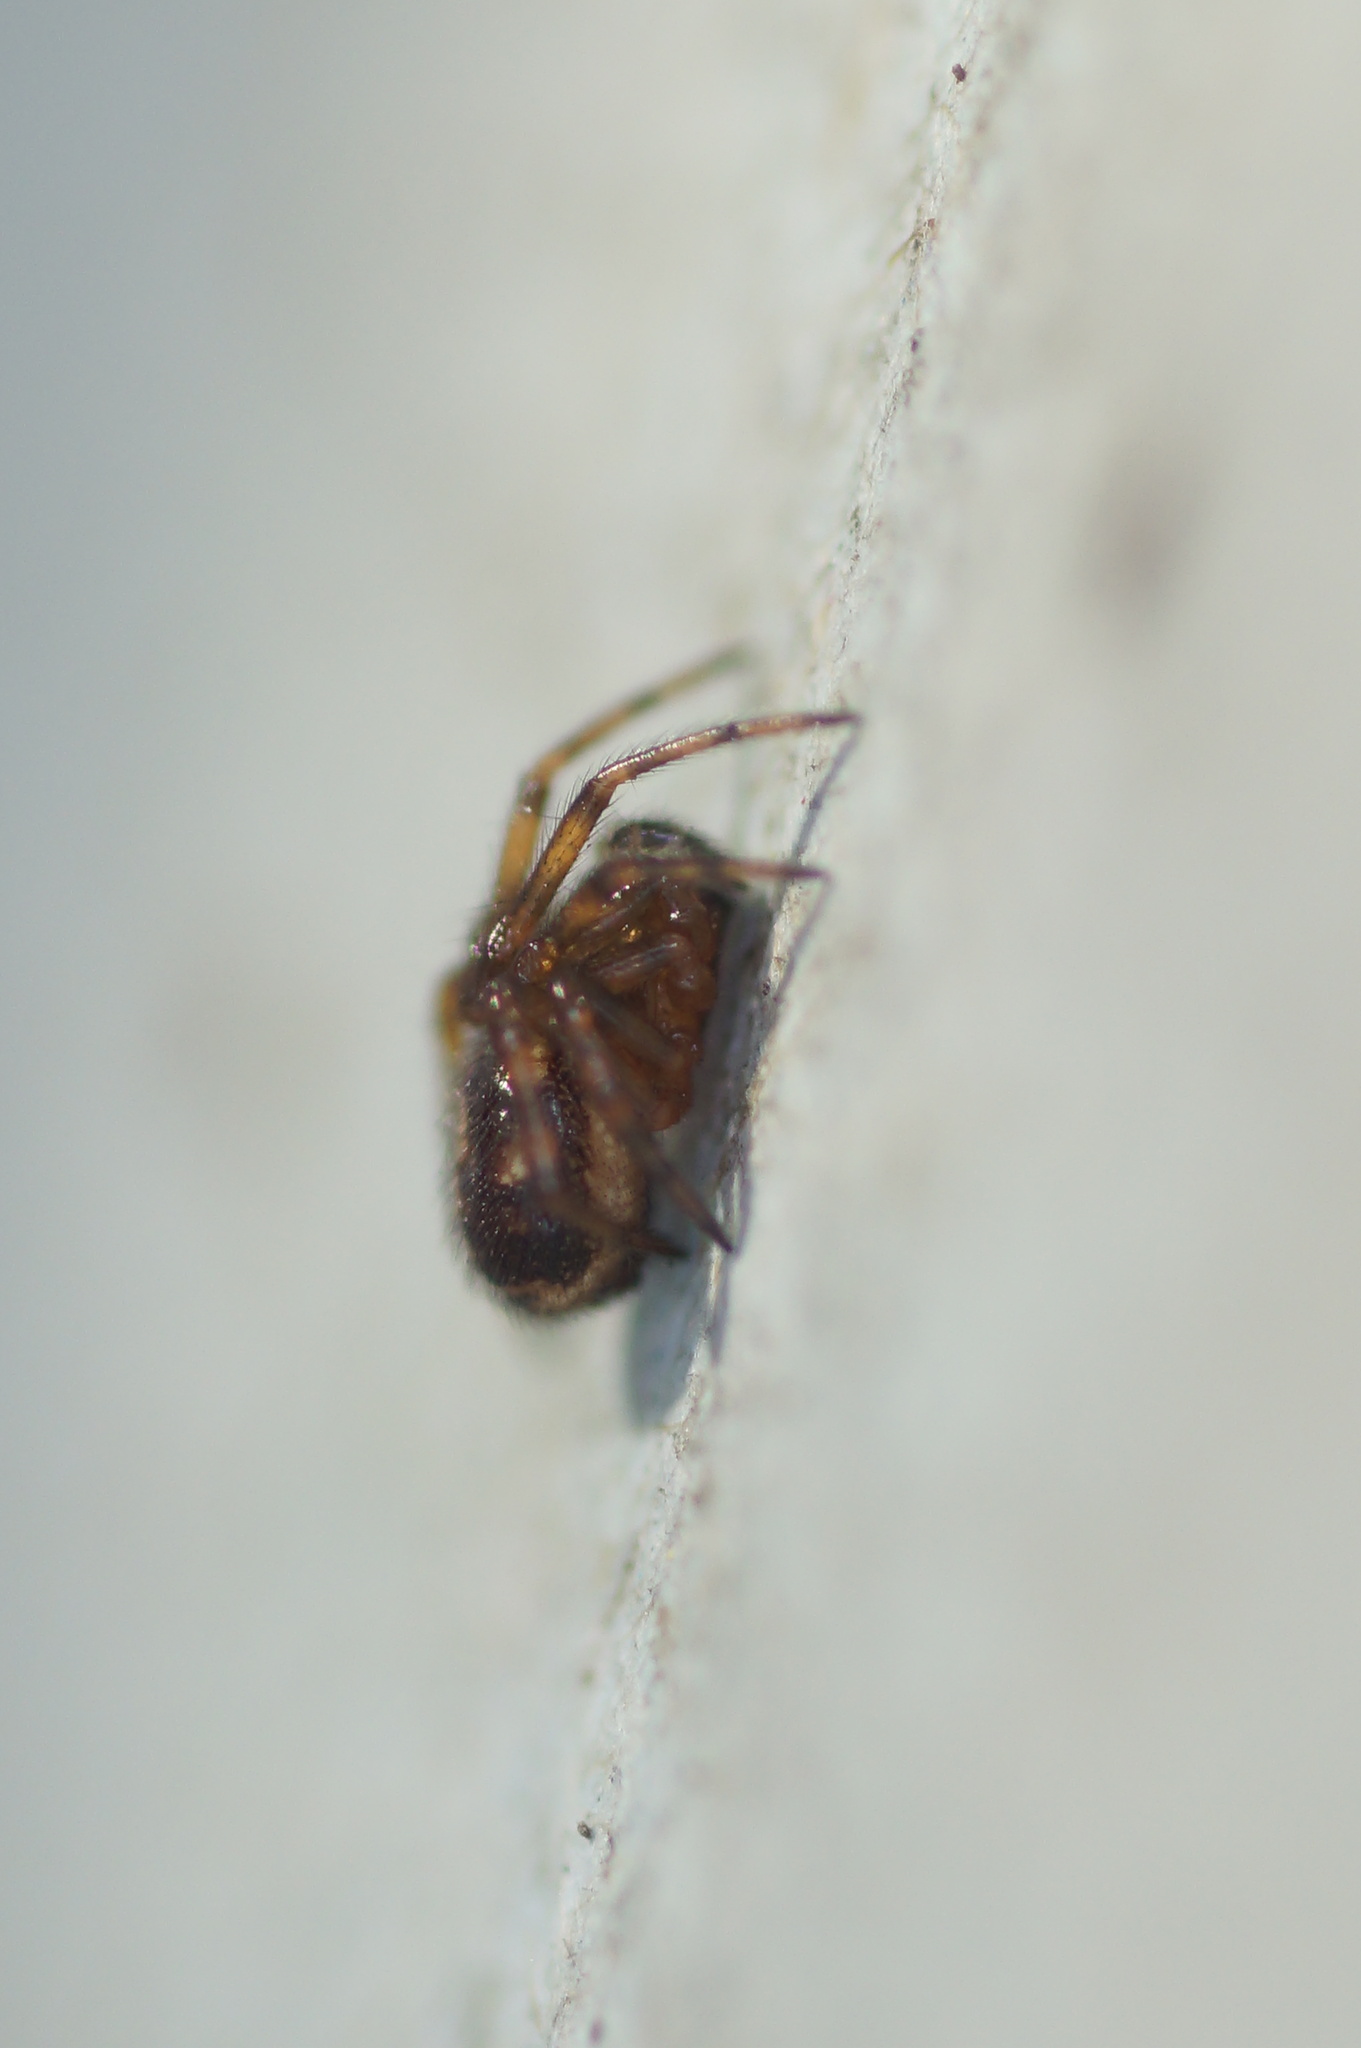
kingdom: Animalia
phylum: Arthropoda
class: Arachnida
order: Araneae
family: Theridiidae
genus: Steatoda
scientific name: Steatoda bipunctata
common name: False widow
